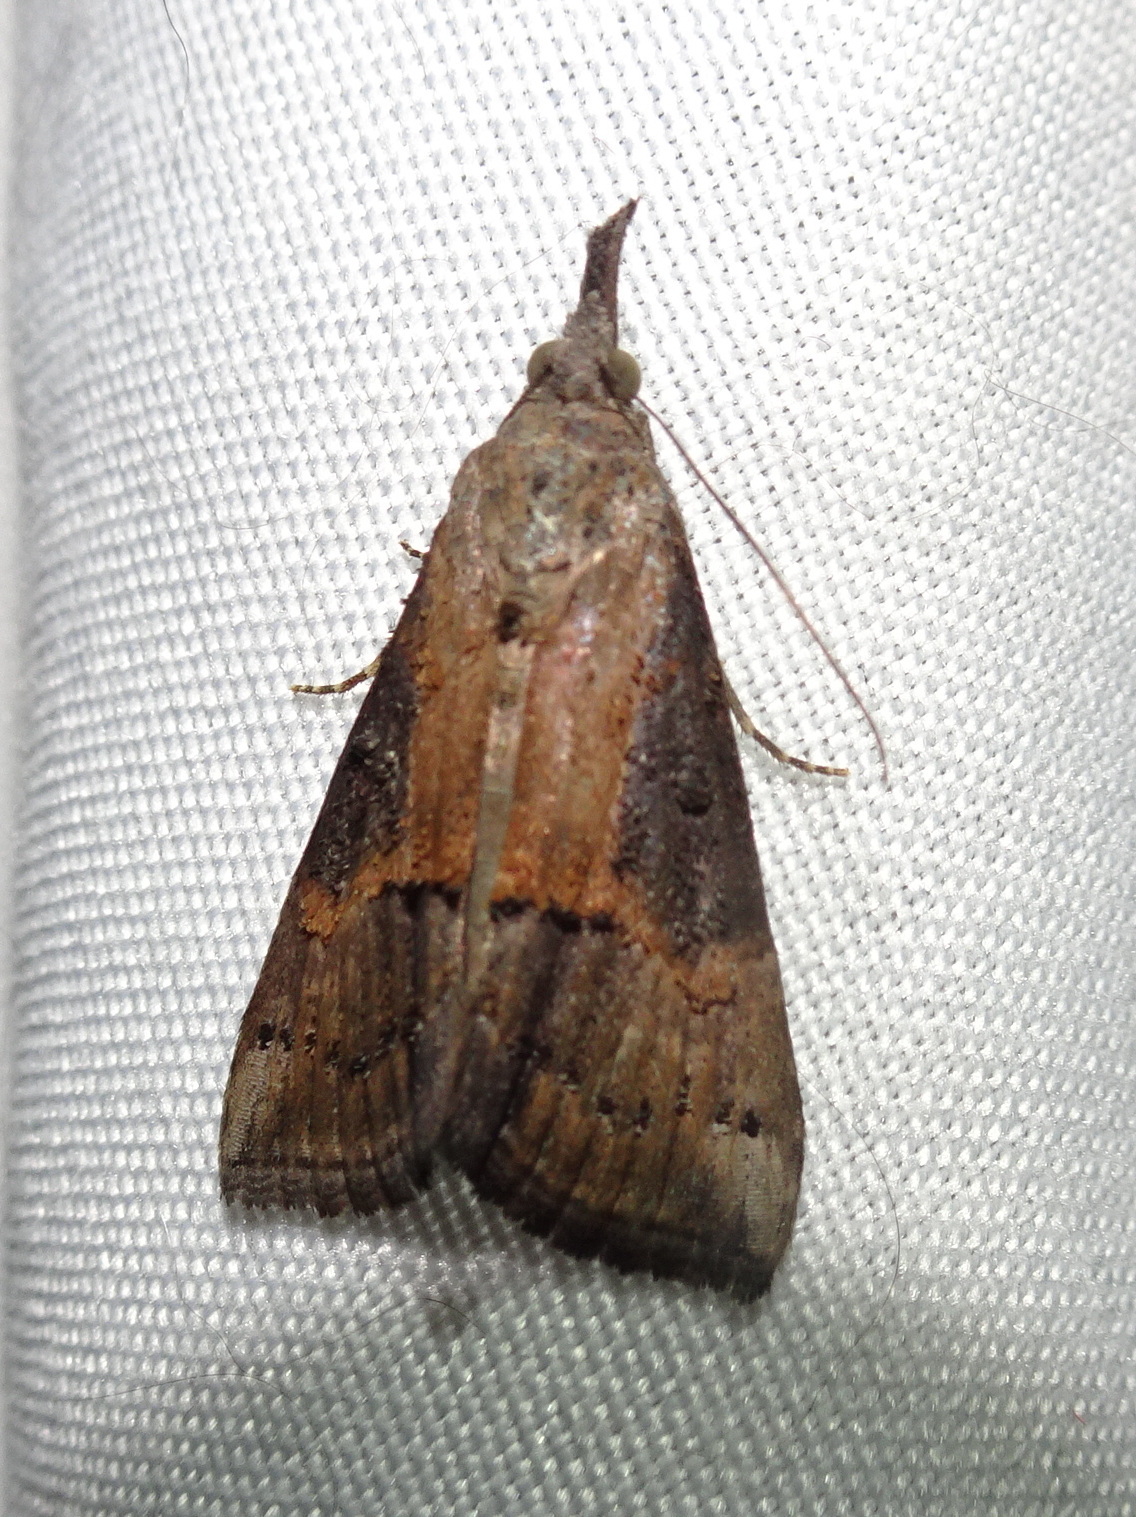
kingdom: Animalia
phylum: Arthropoda
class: Insecta
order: Lepidoptera
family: Erebidae
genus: Hypena
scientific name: Hypena scabra
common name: Green cloverworm
